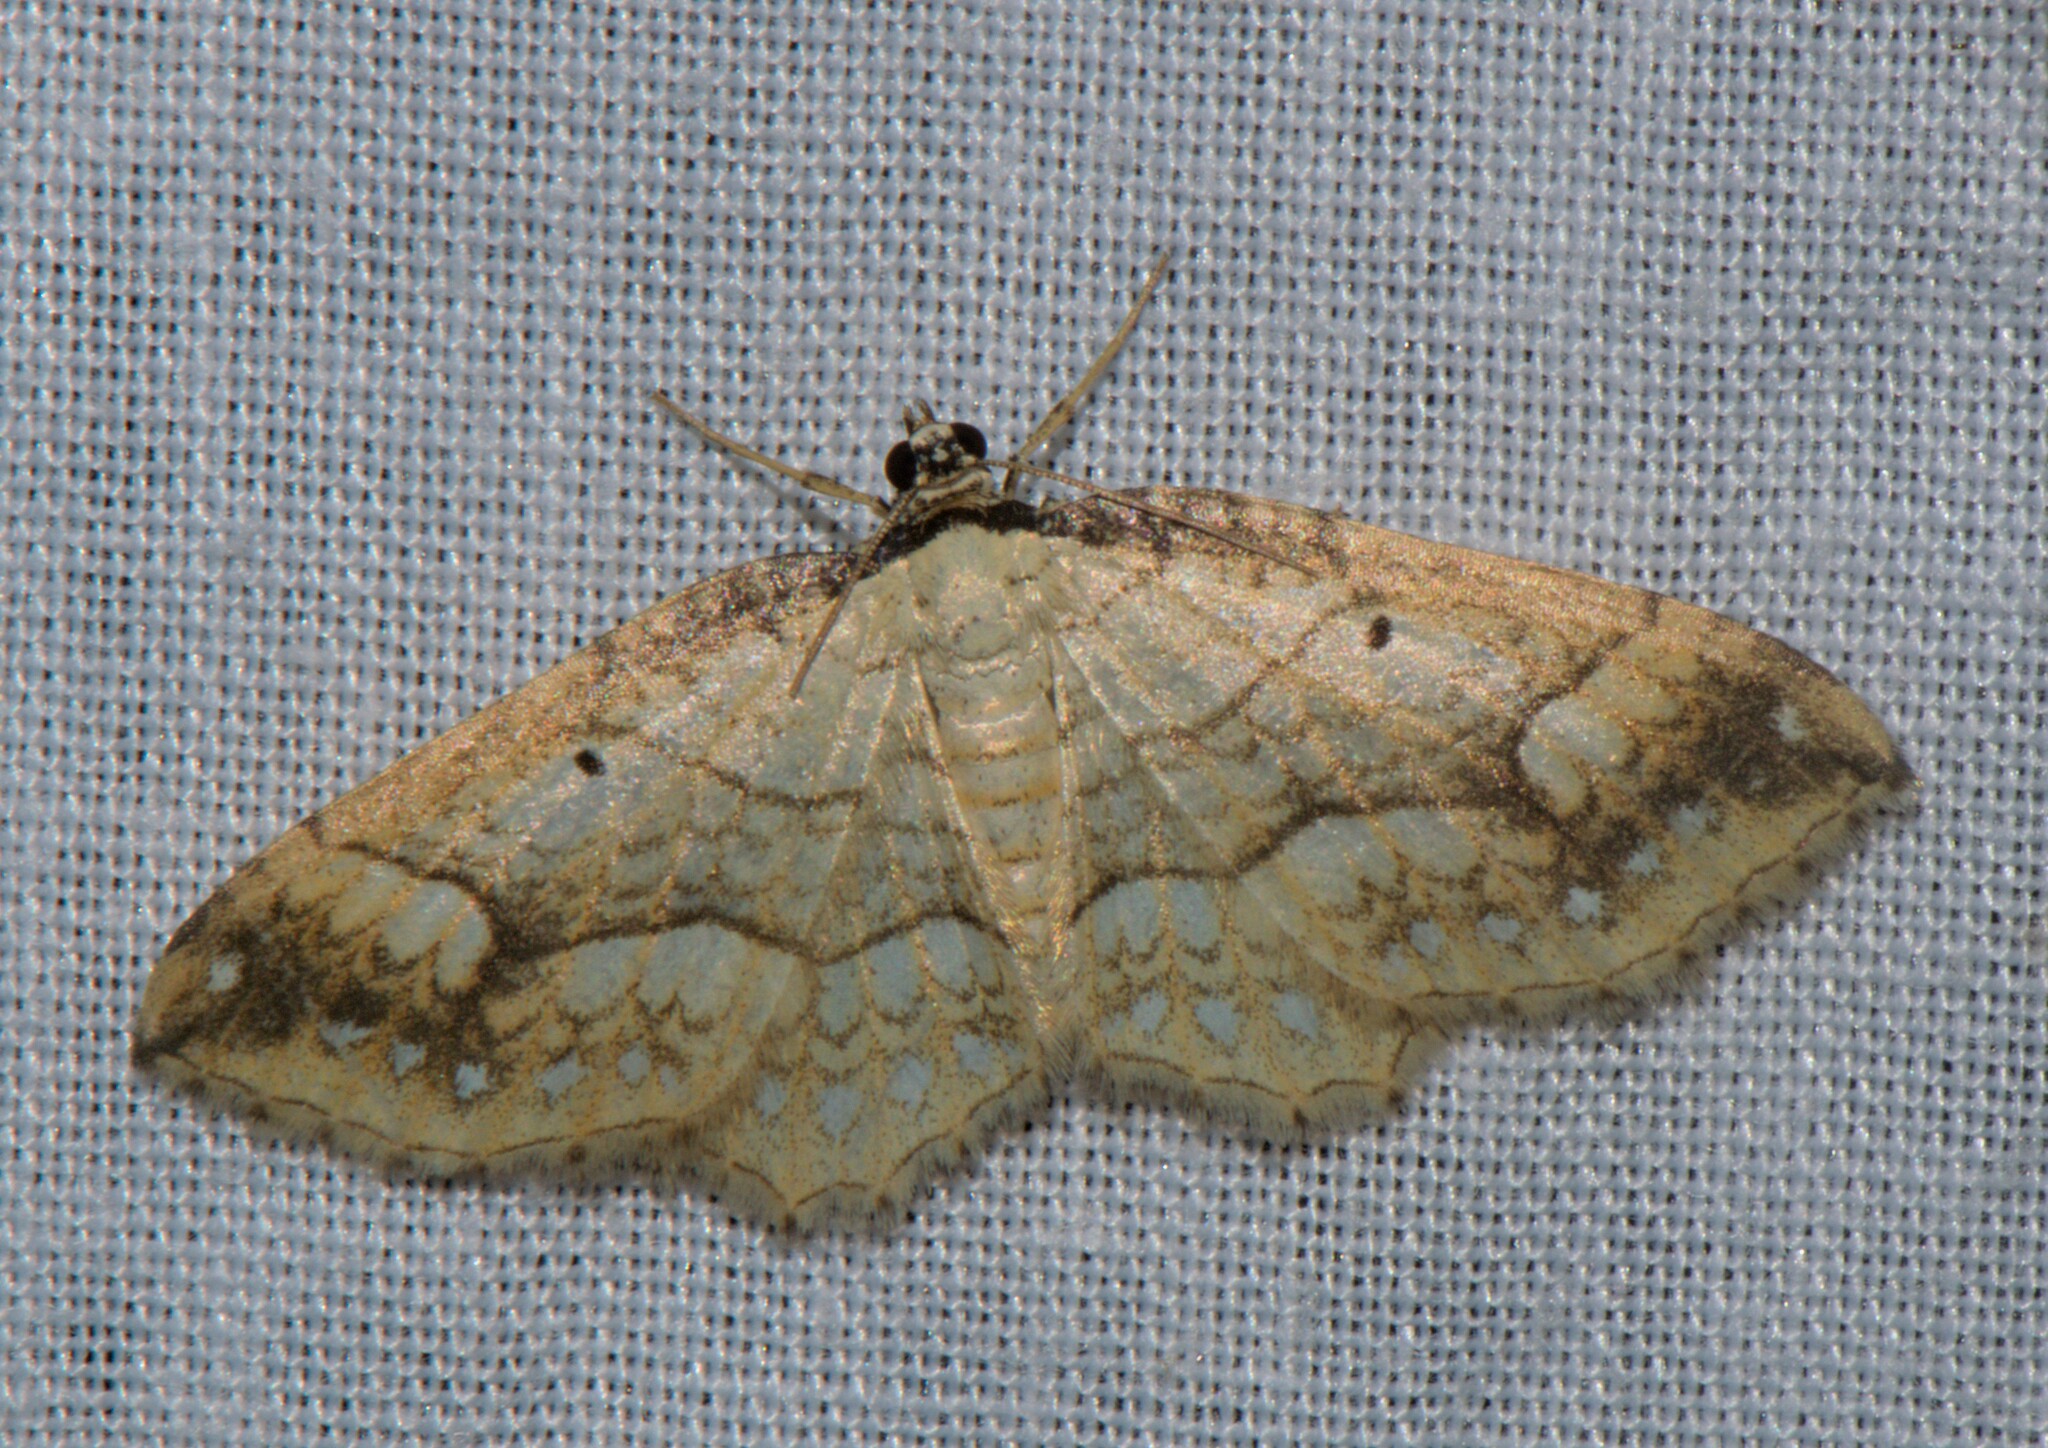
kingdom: Animalia
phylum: Arthropoda
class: Insecta
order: Lepidoptera
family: Geometridae
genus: Laciniodes
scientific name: Laciniodes plurilinearia
